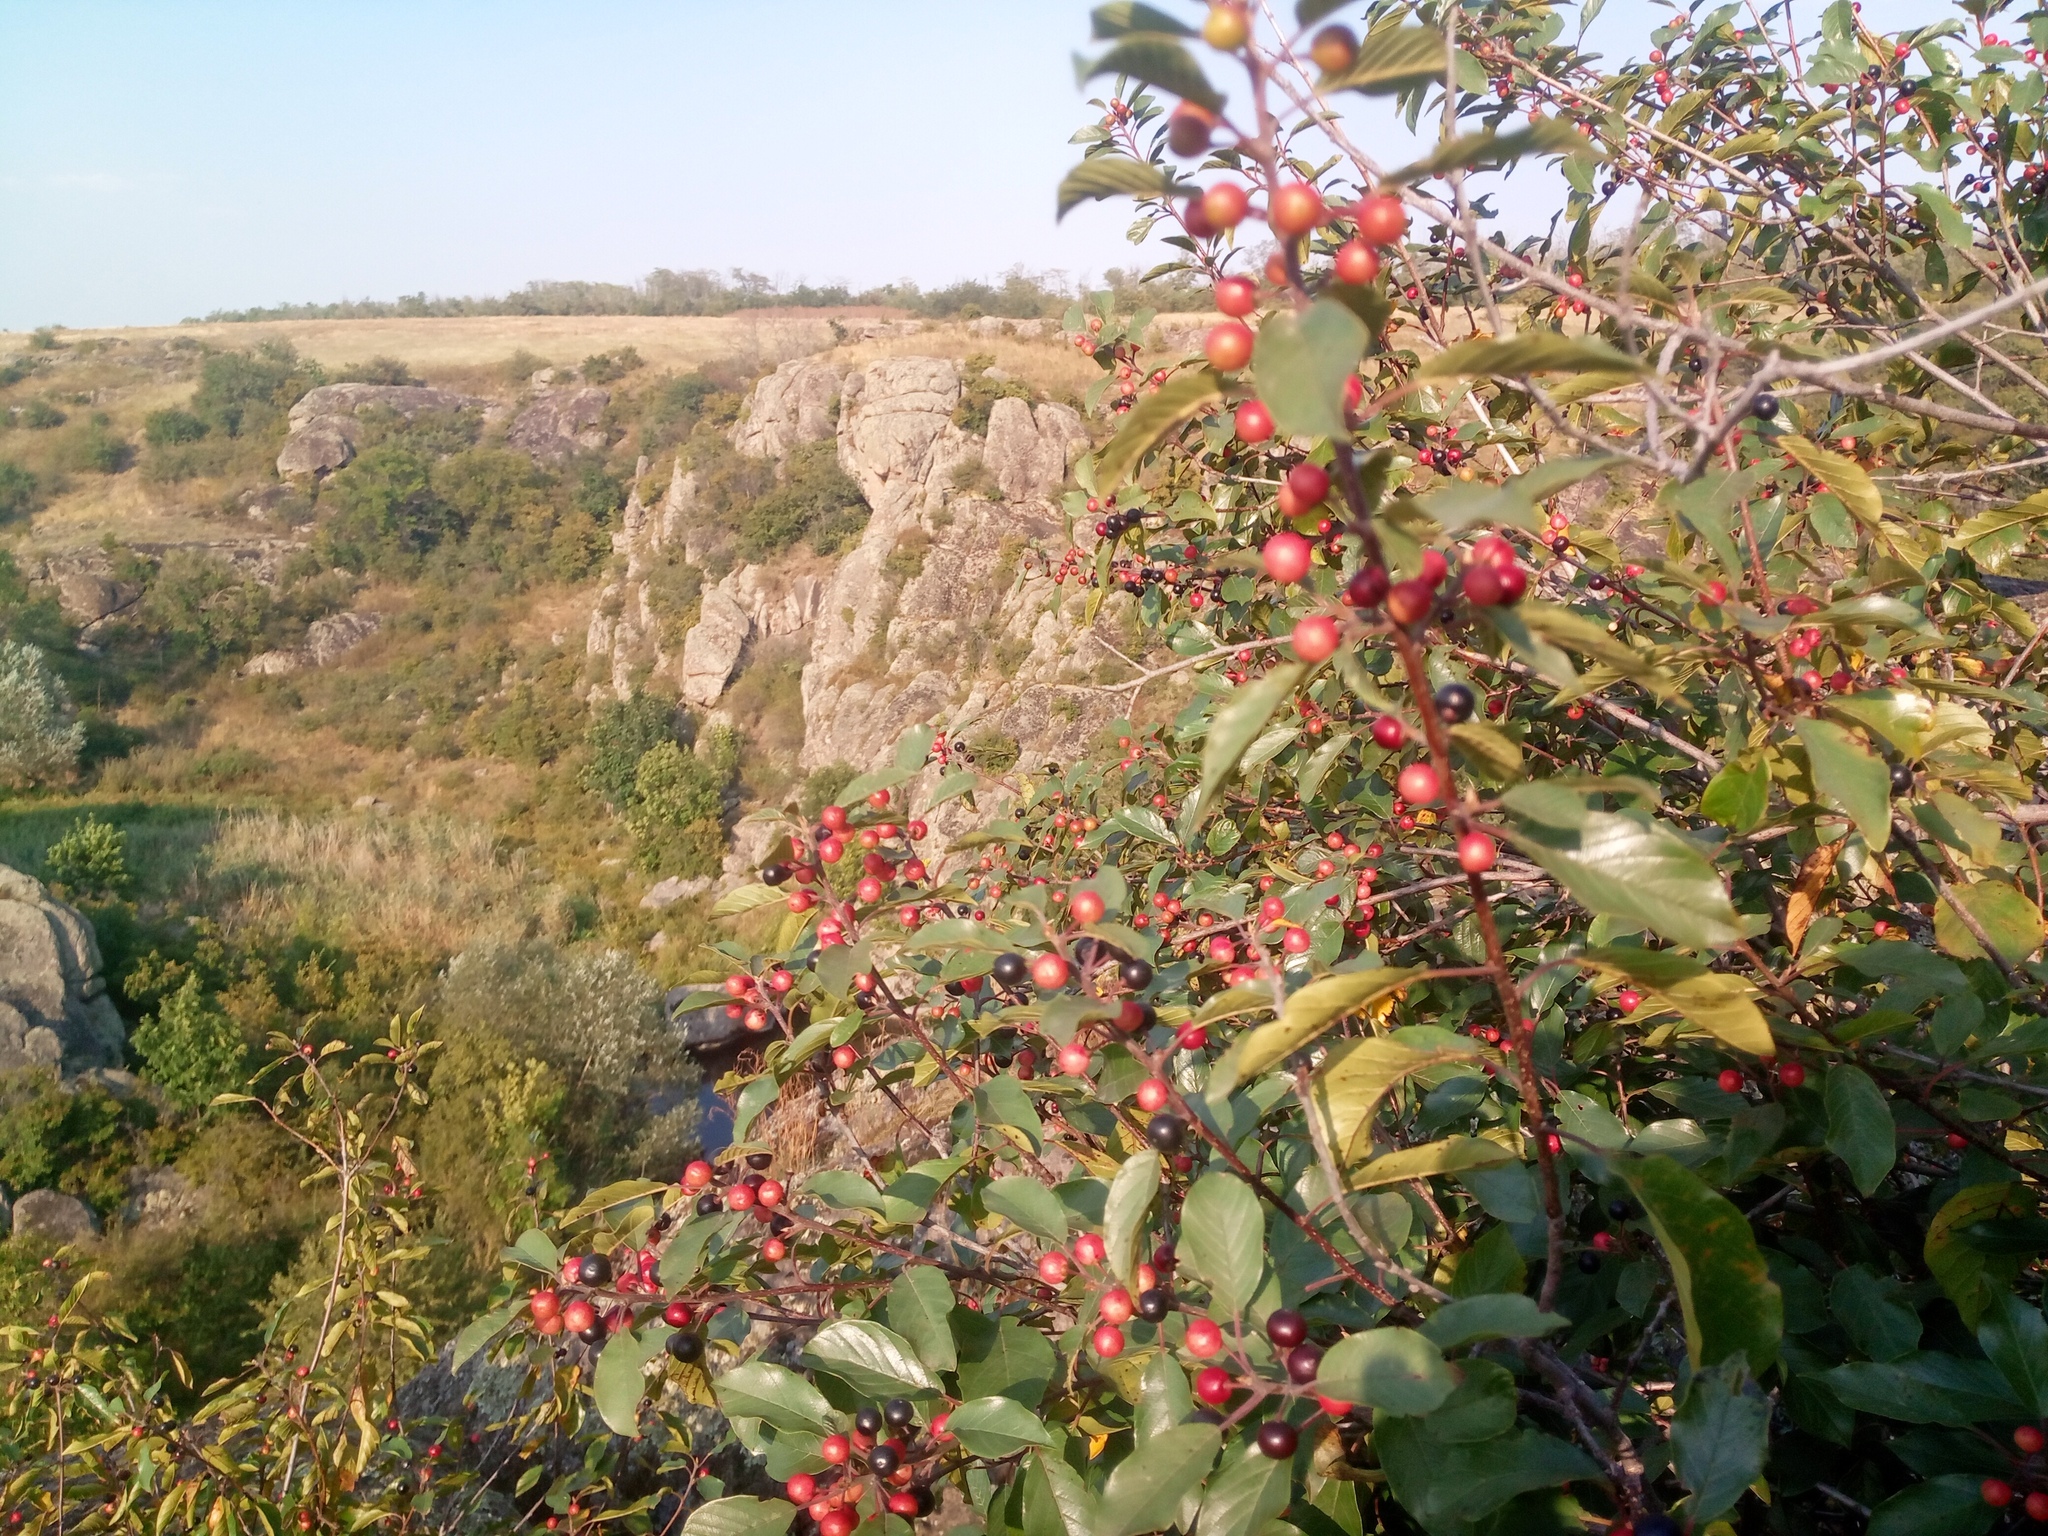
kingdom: Plantae
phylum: Tracheophyta
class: Magnoliopsida
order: Rosales
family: Rhamnaceae
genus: Frangula
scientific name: Frangula alnus
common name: Alder buckthorn
